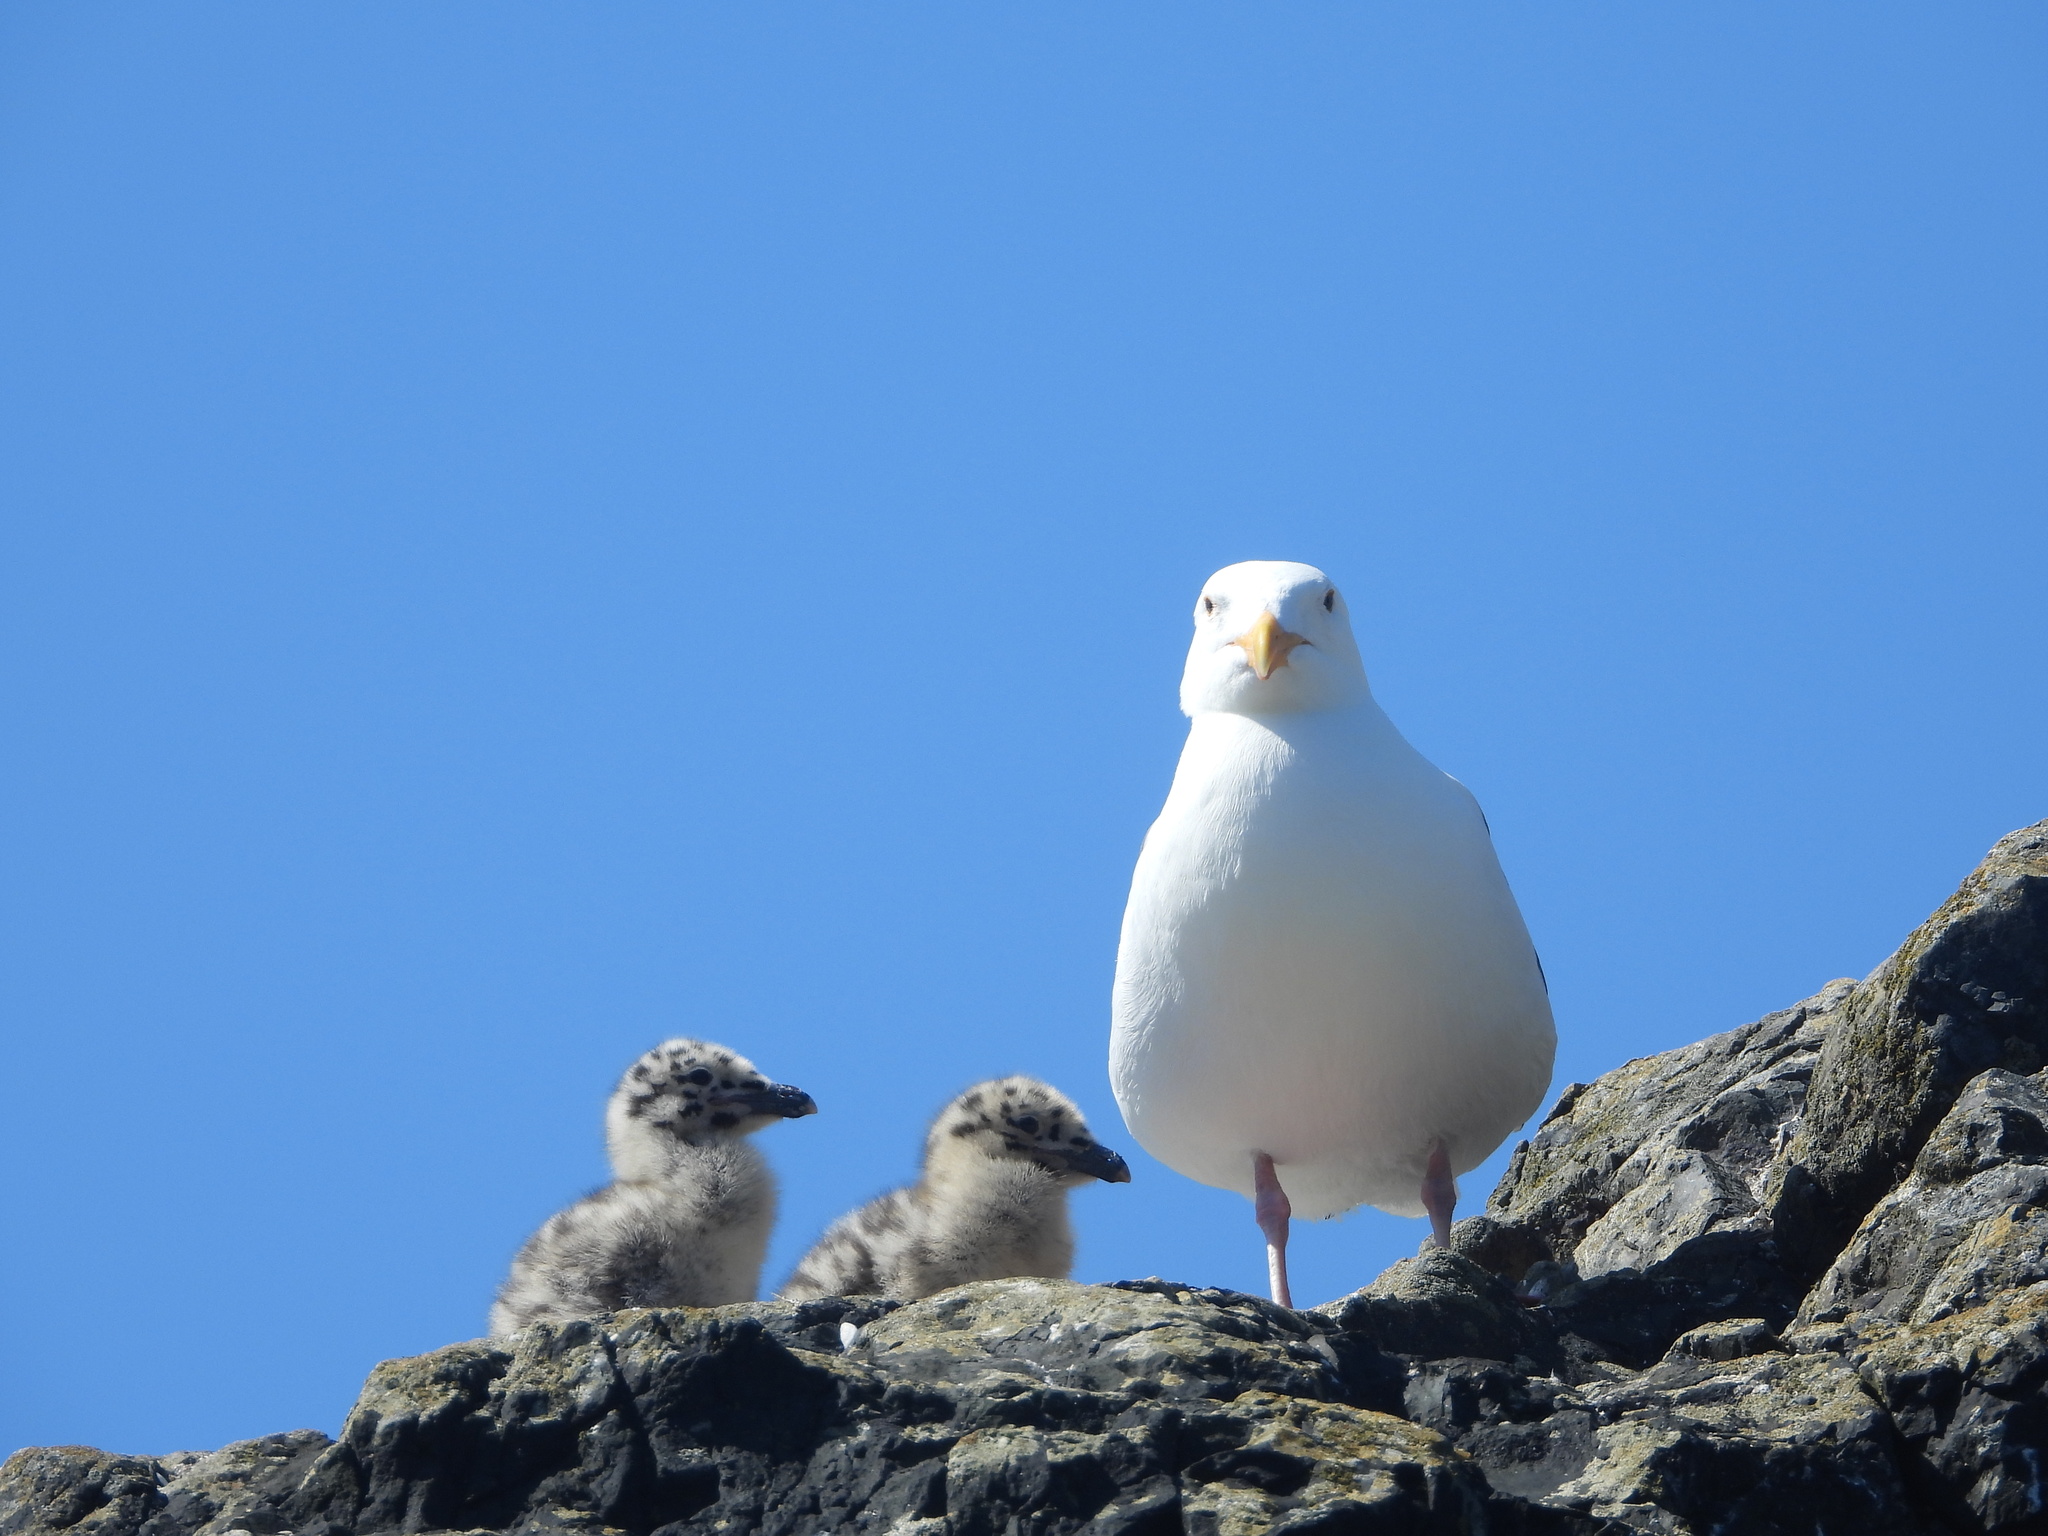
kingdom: Animalia
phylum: Chordata
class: Aves
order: Charadriiformes
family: Laridae
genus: Larus
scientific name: Larus occidentalis
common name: Western gull
